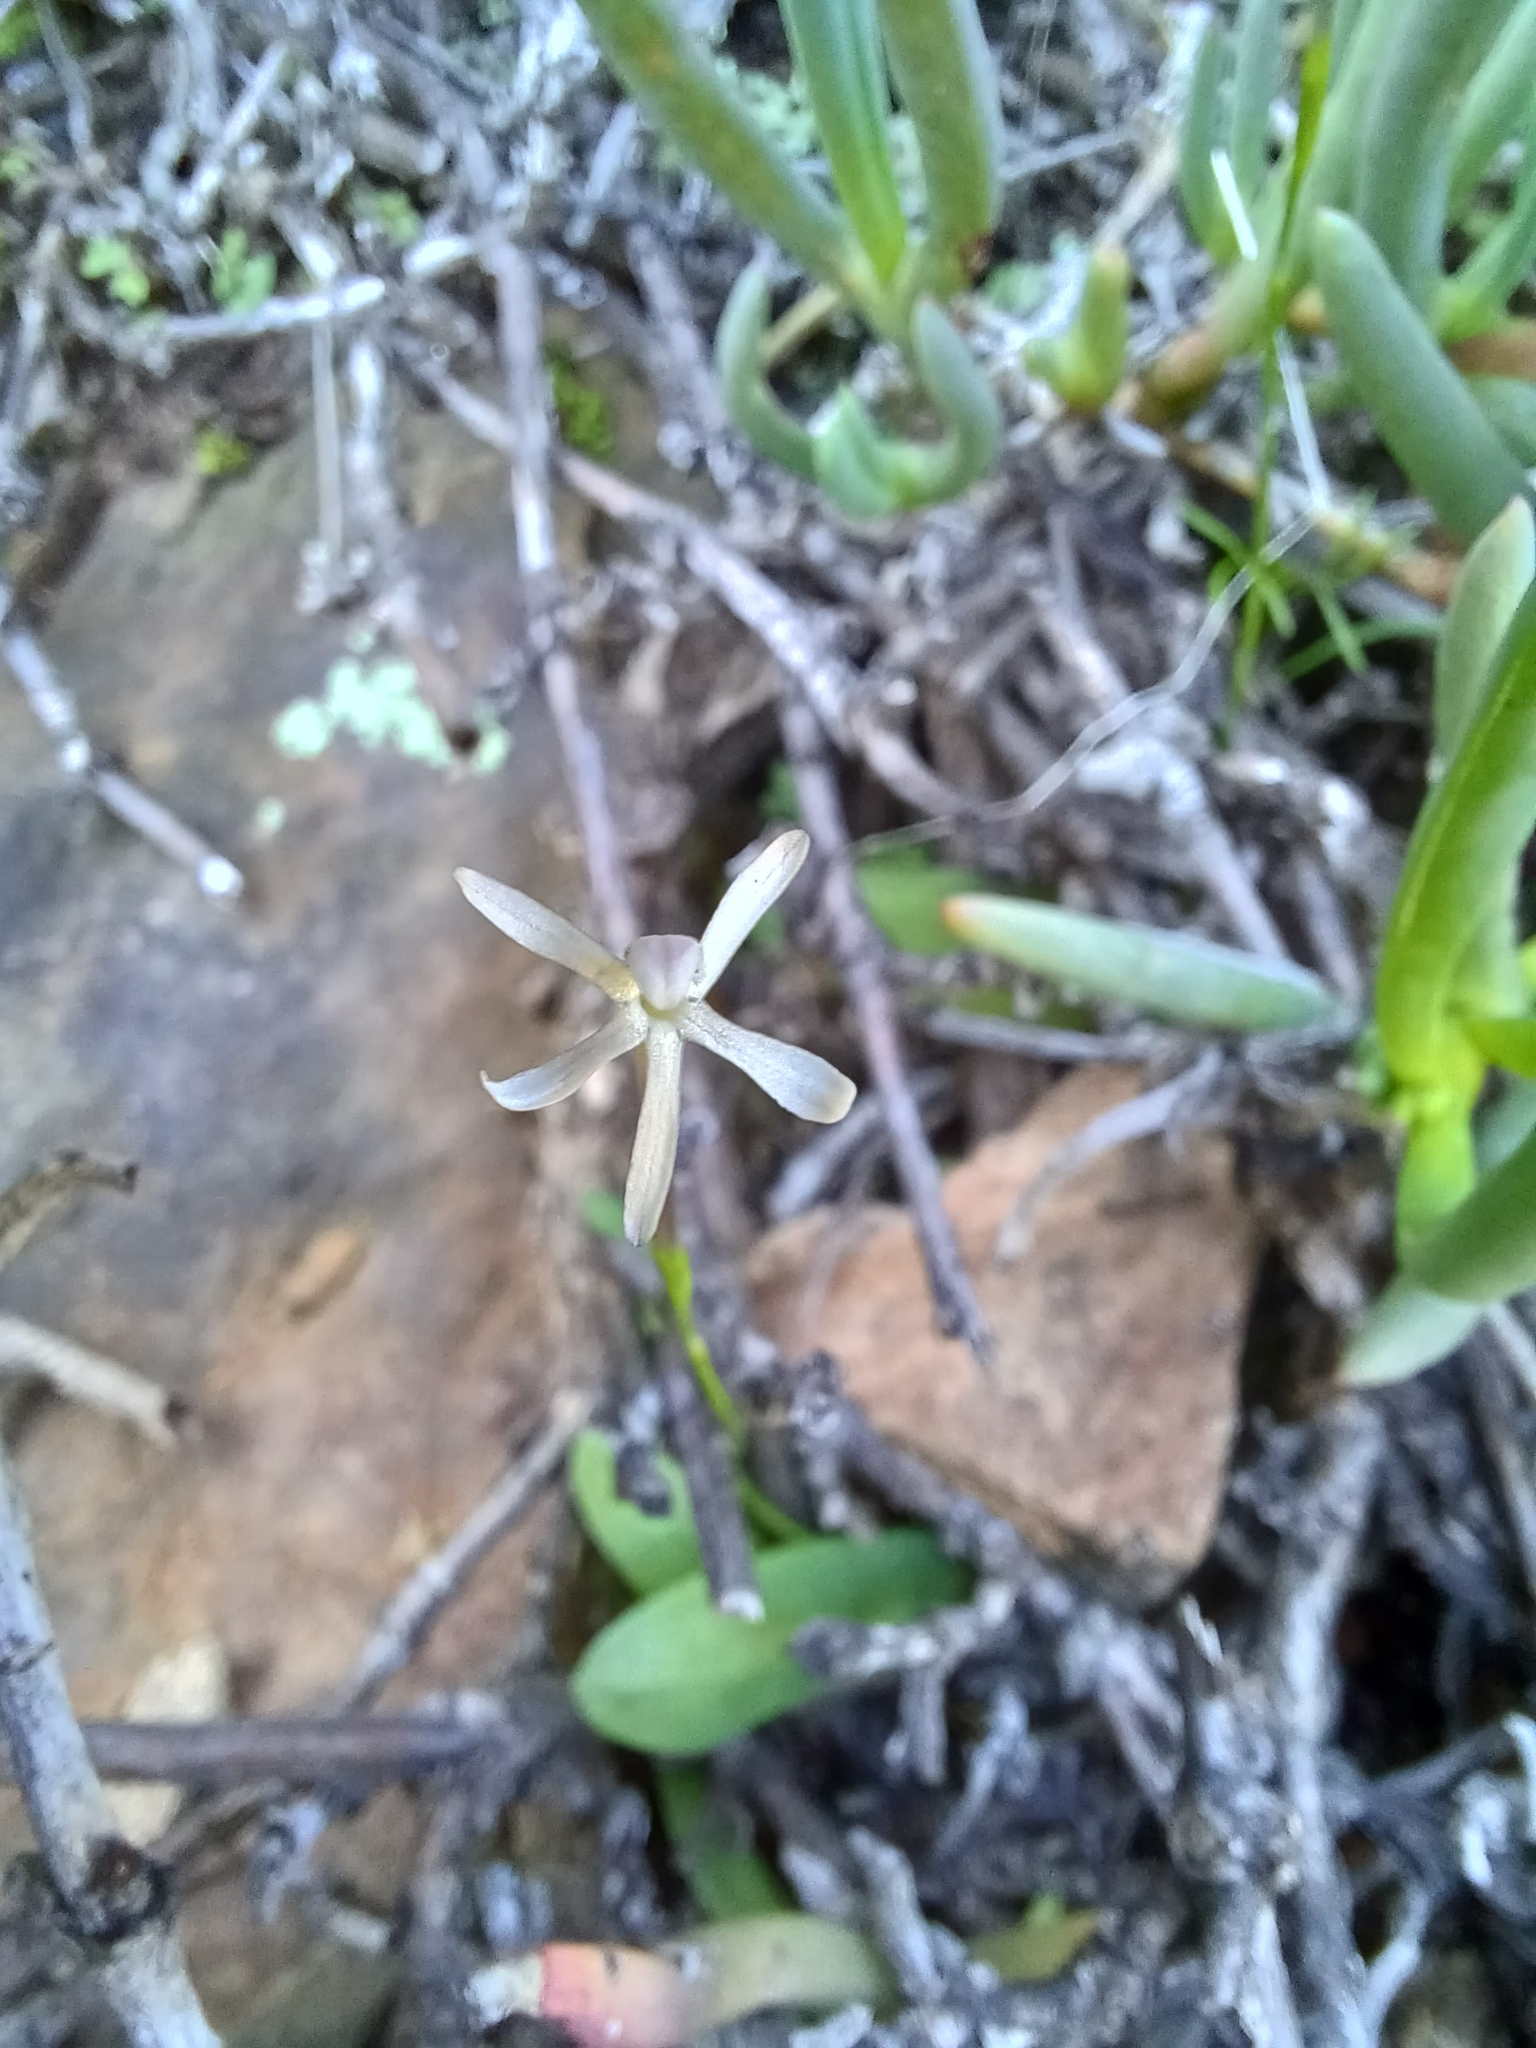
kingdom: Plantae
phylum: Tracheophyta
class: Liliopsida
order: Asparagales
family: Iridaceae
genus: Xenoscapa
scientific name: Xenoscapa fistulosa
